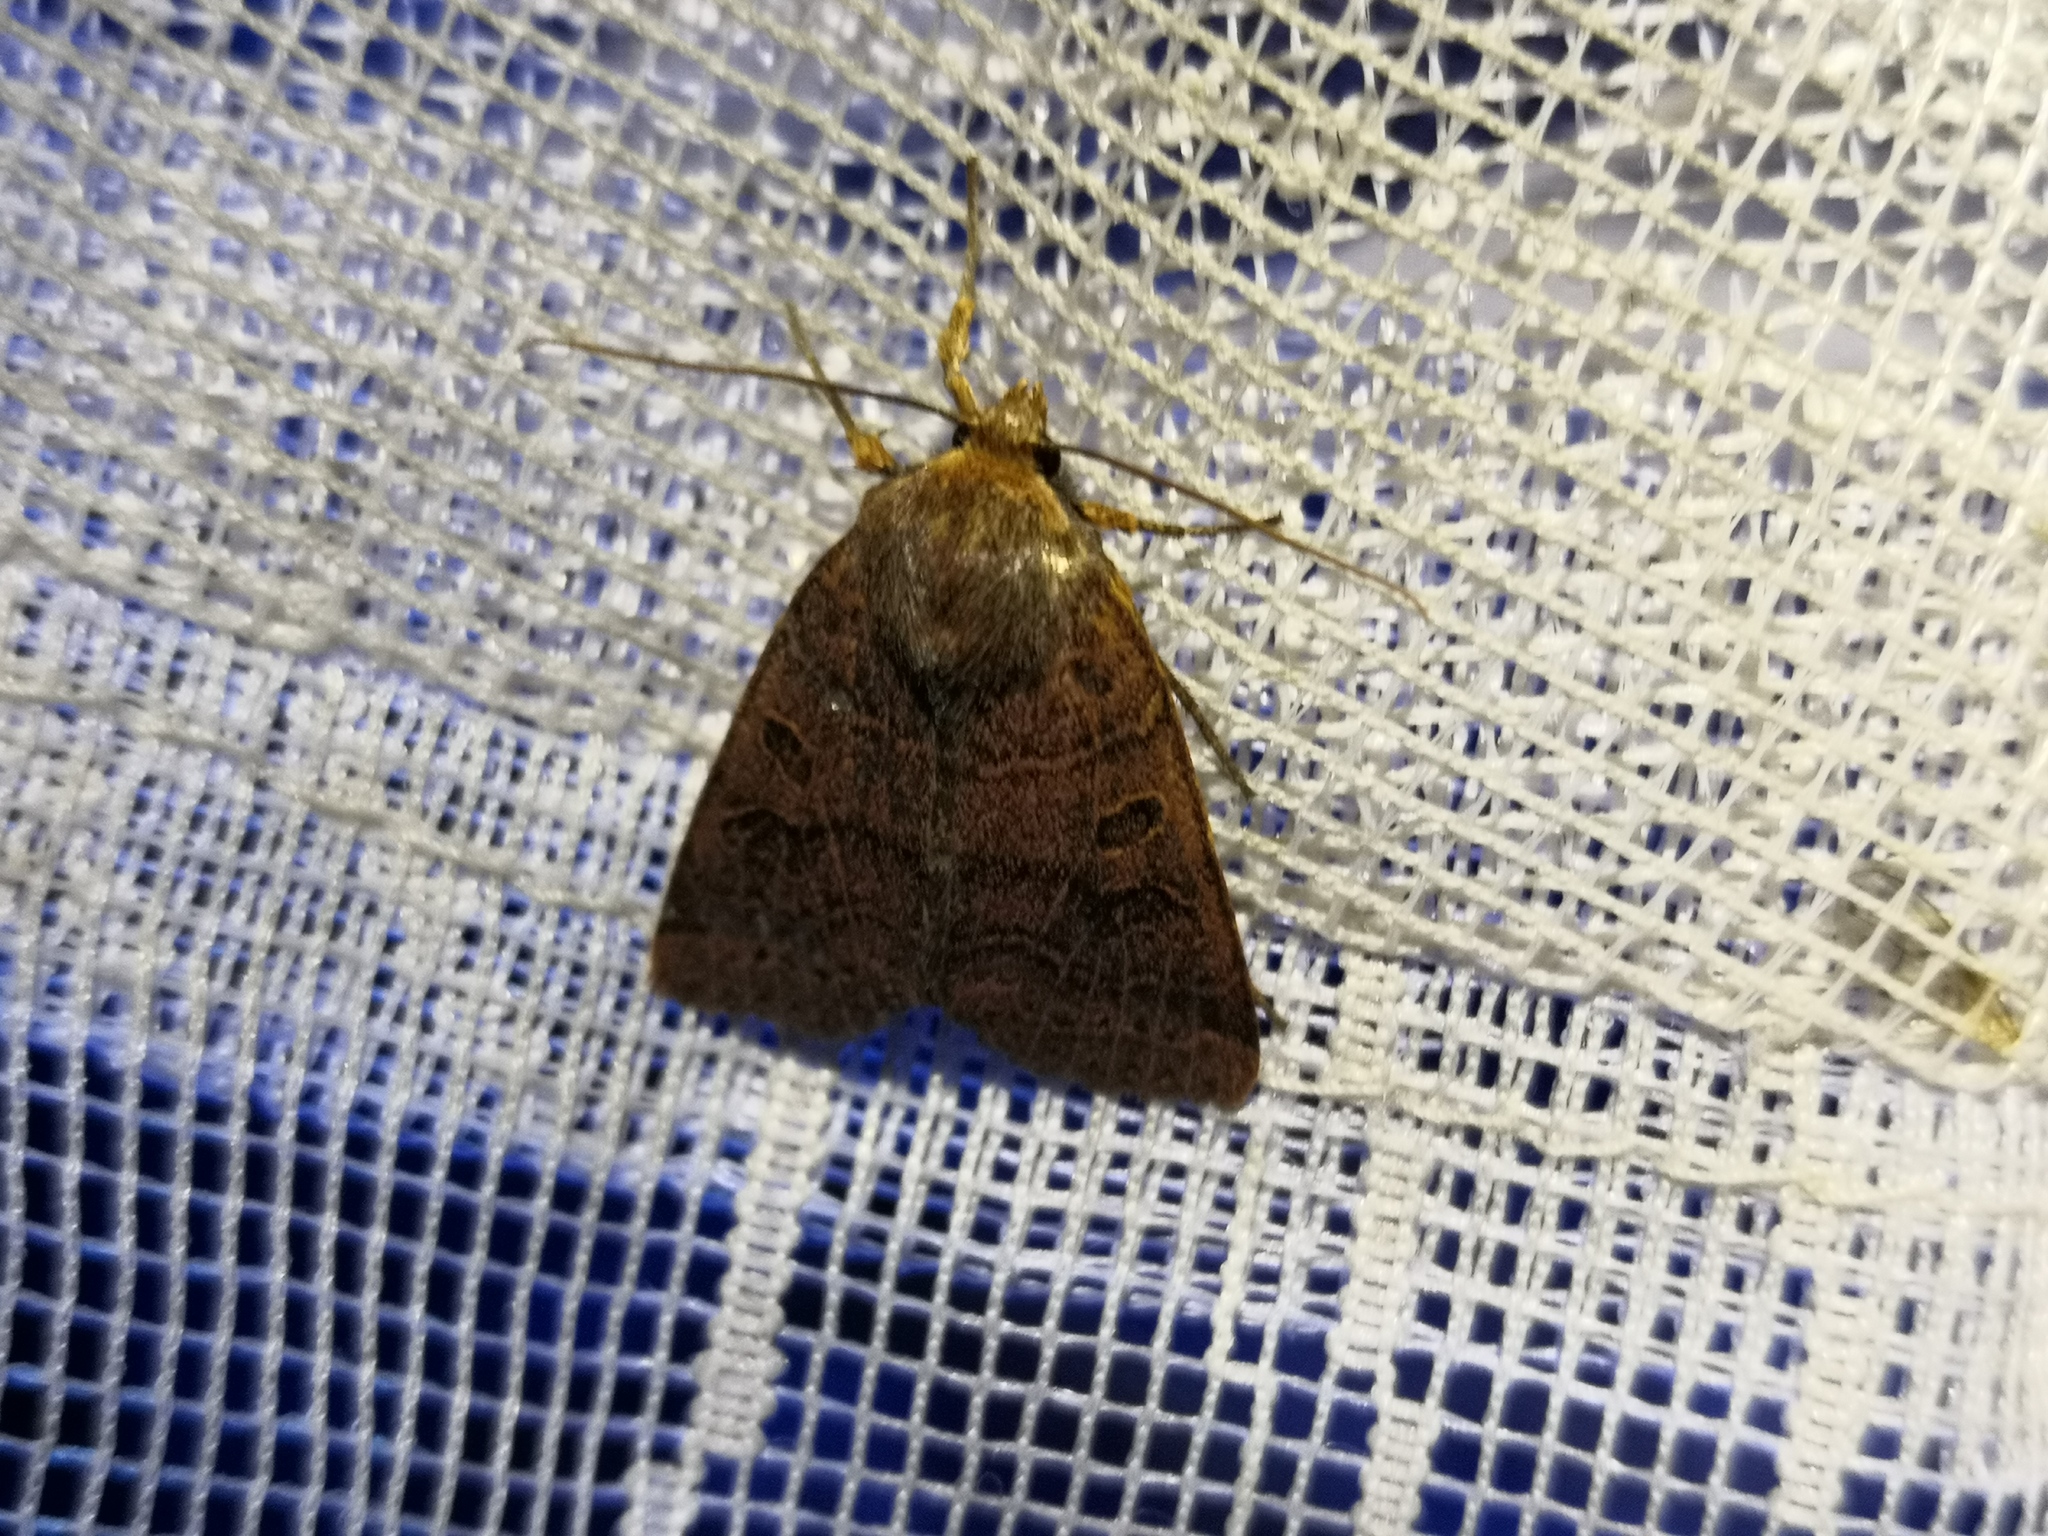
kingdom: Animalia
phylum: Arthropoda
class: Insecta
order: Lepidoptera
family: Noctuidae
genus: Agrochola
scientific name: Agrochola nitida
